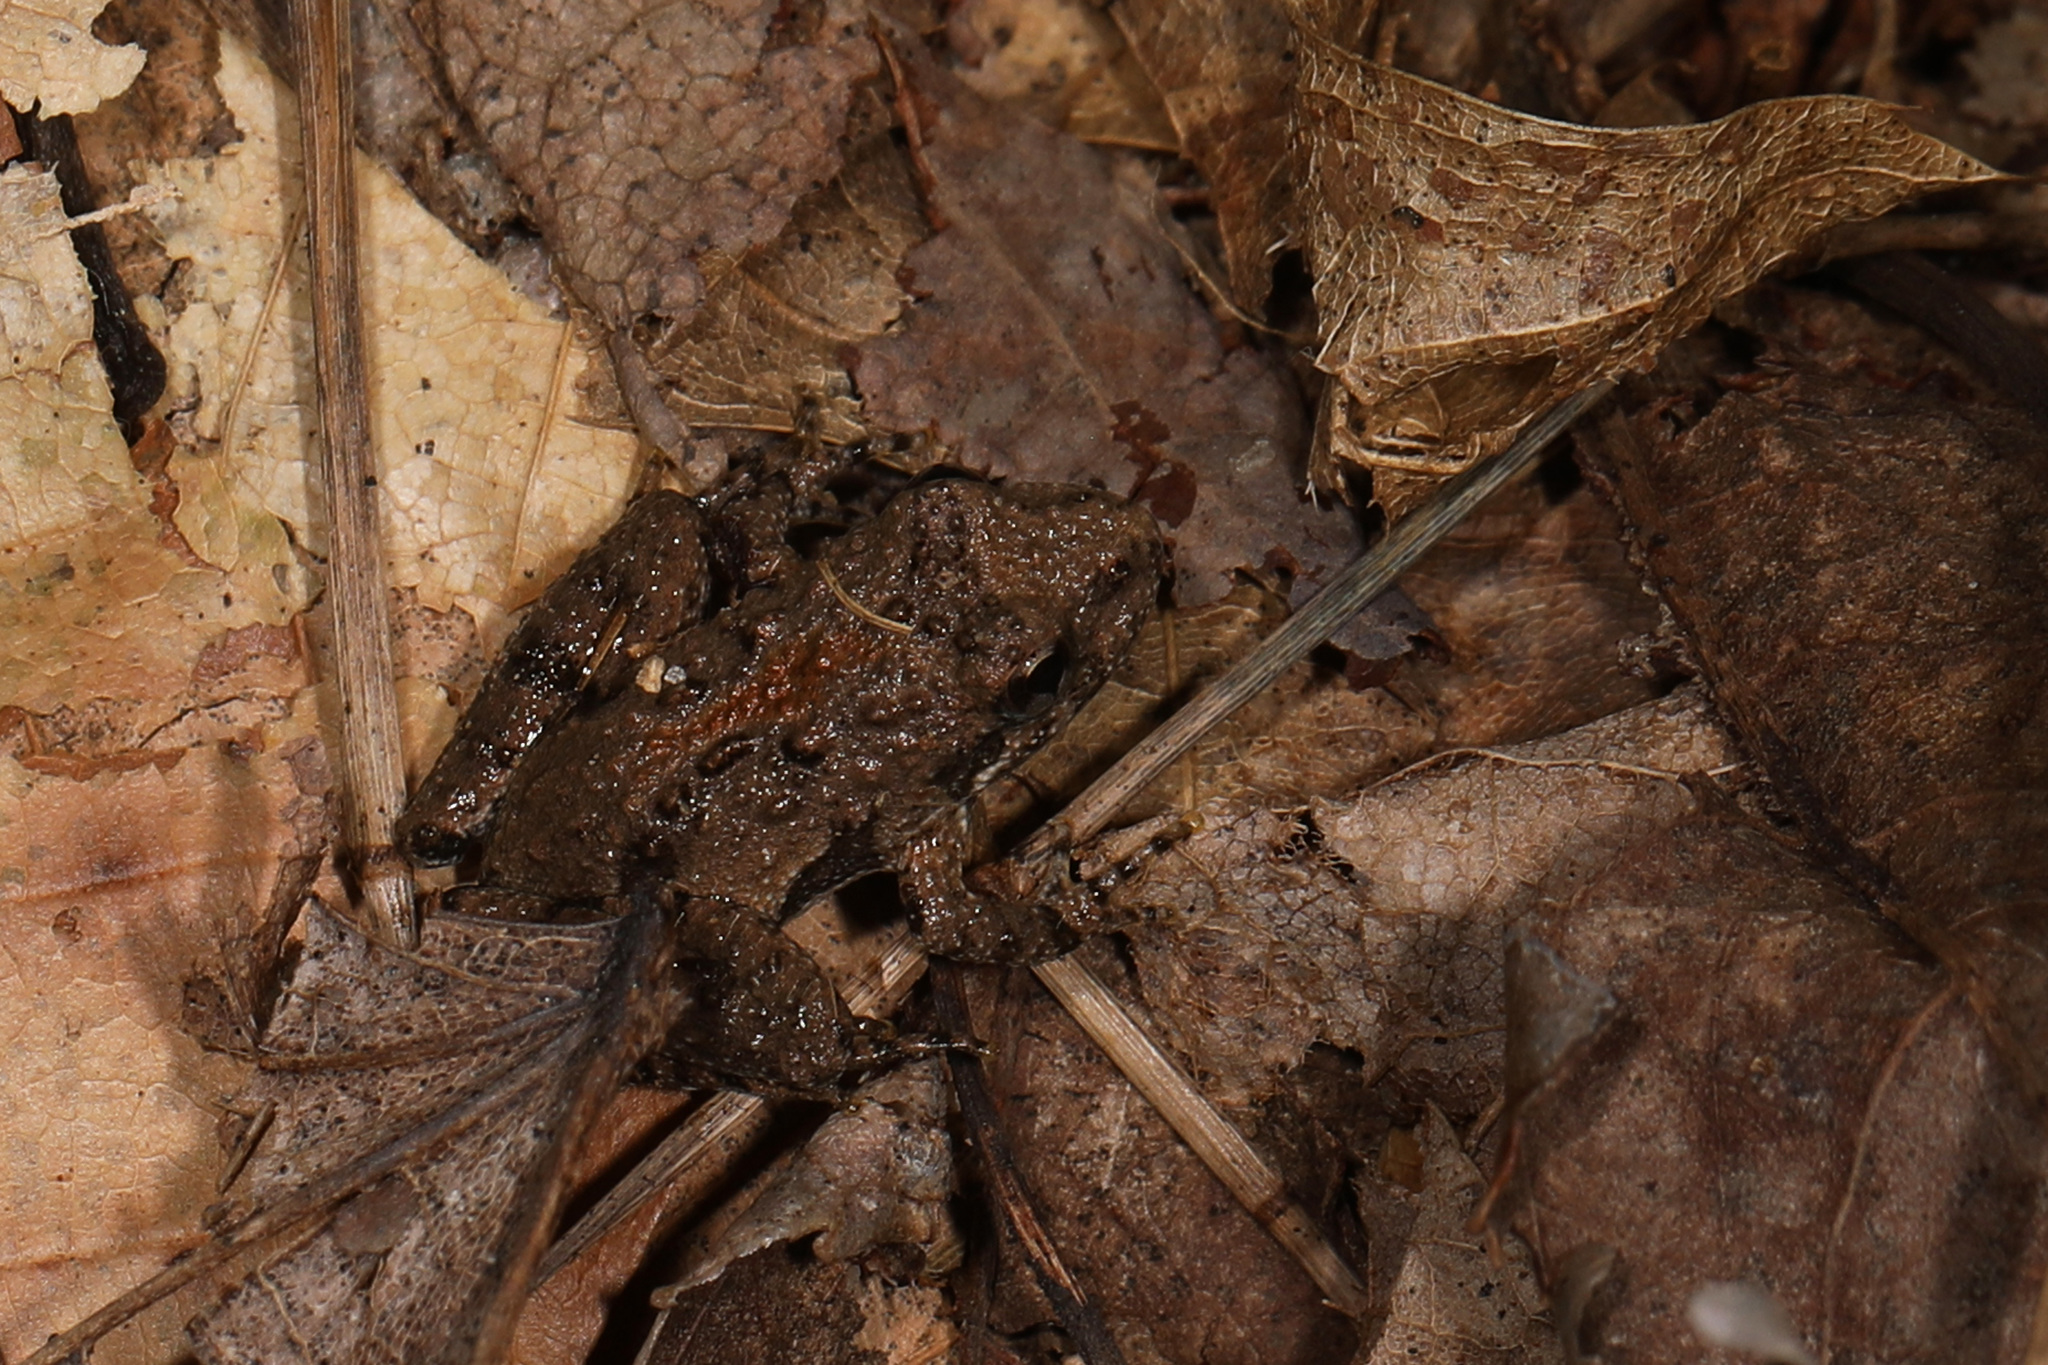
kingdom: Animalia
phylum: Chordata
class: Amphibia
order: Anura
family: Hylidae
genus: Acris
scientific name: Acris crepitans
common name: Northern cricket frog
